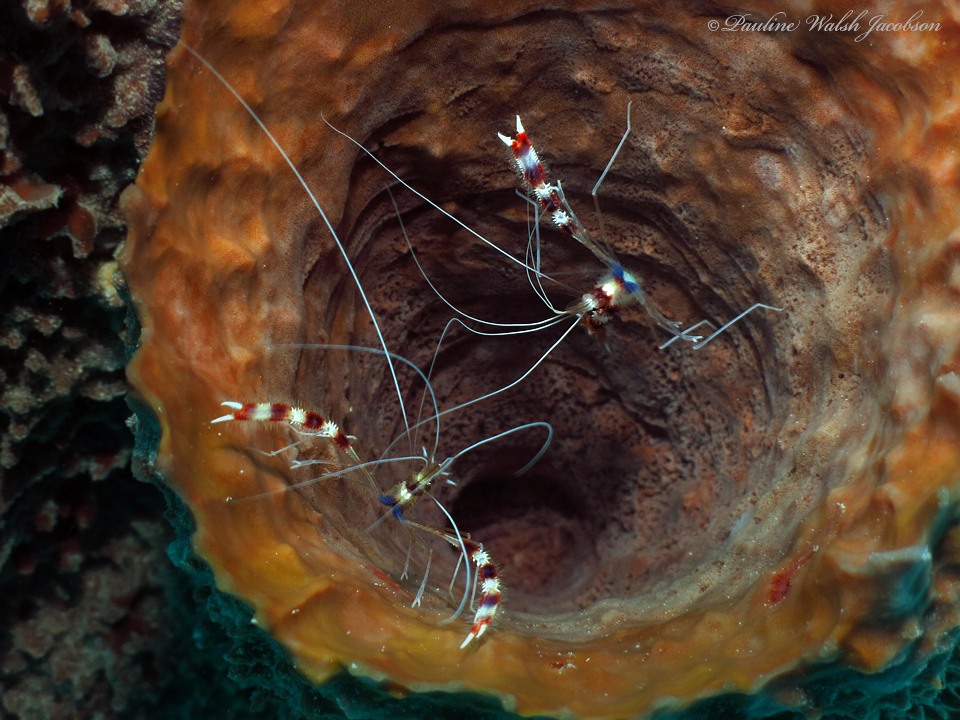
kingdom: Animalia
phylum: Arthropoda
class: Malacostraca
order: Decapoda
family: Stenopodidae
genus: Stenopus
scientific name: Stenopus hispidus
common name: Banded coral shrimp
